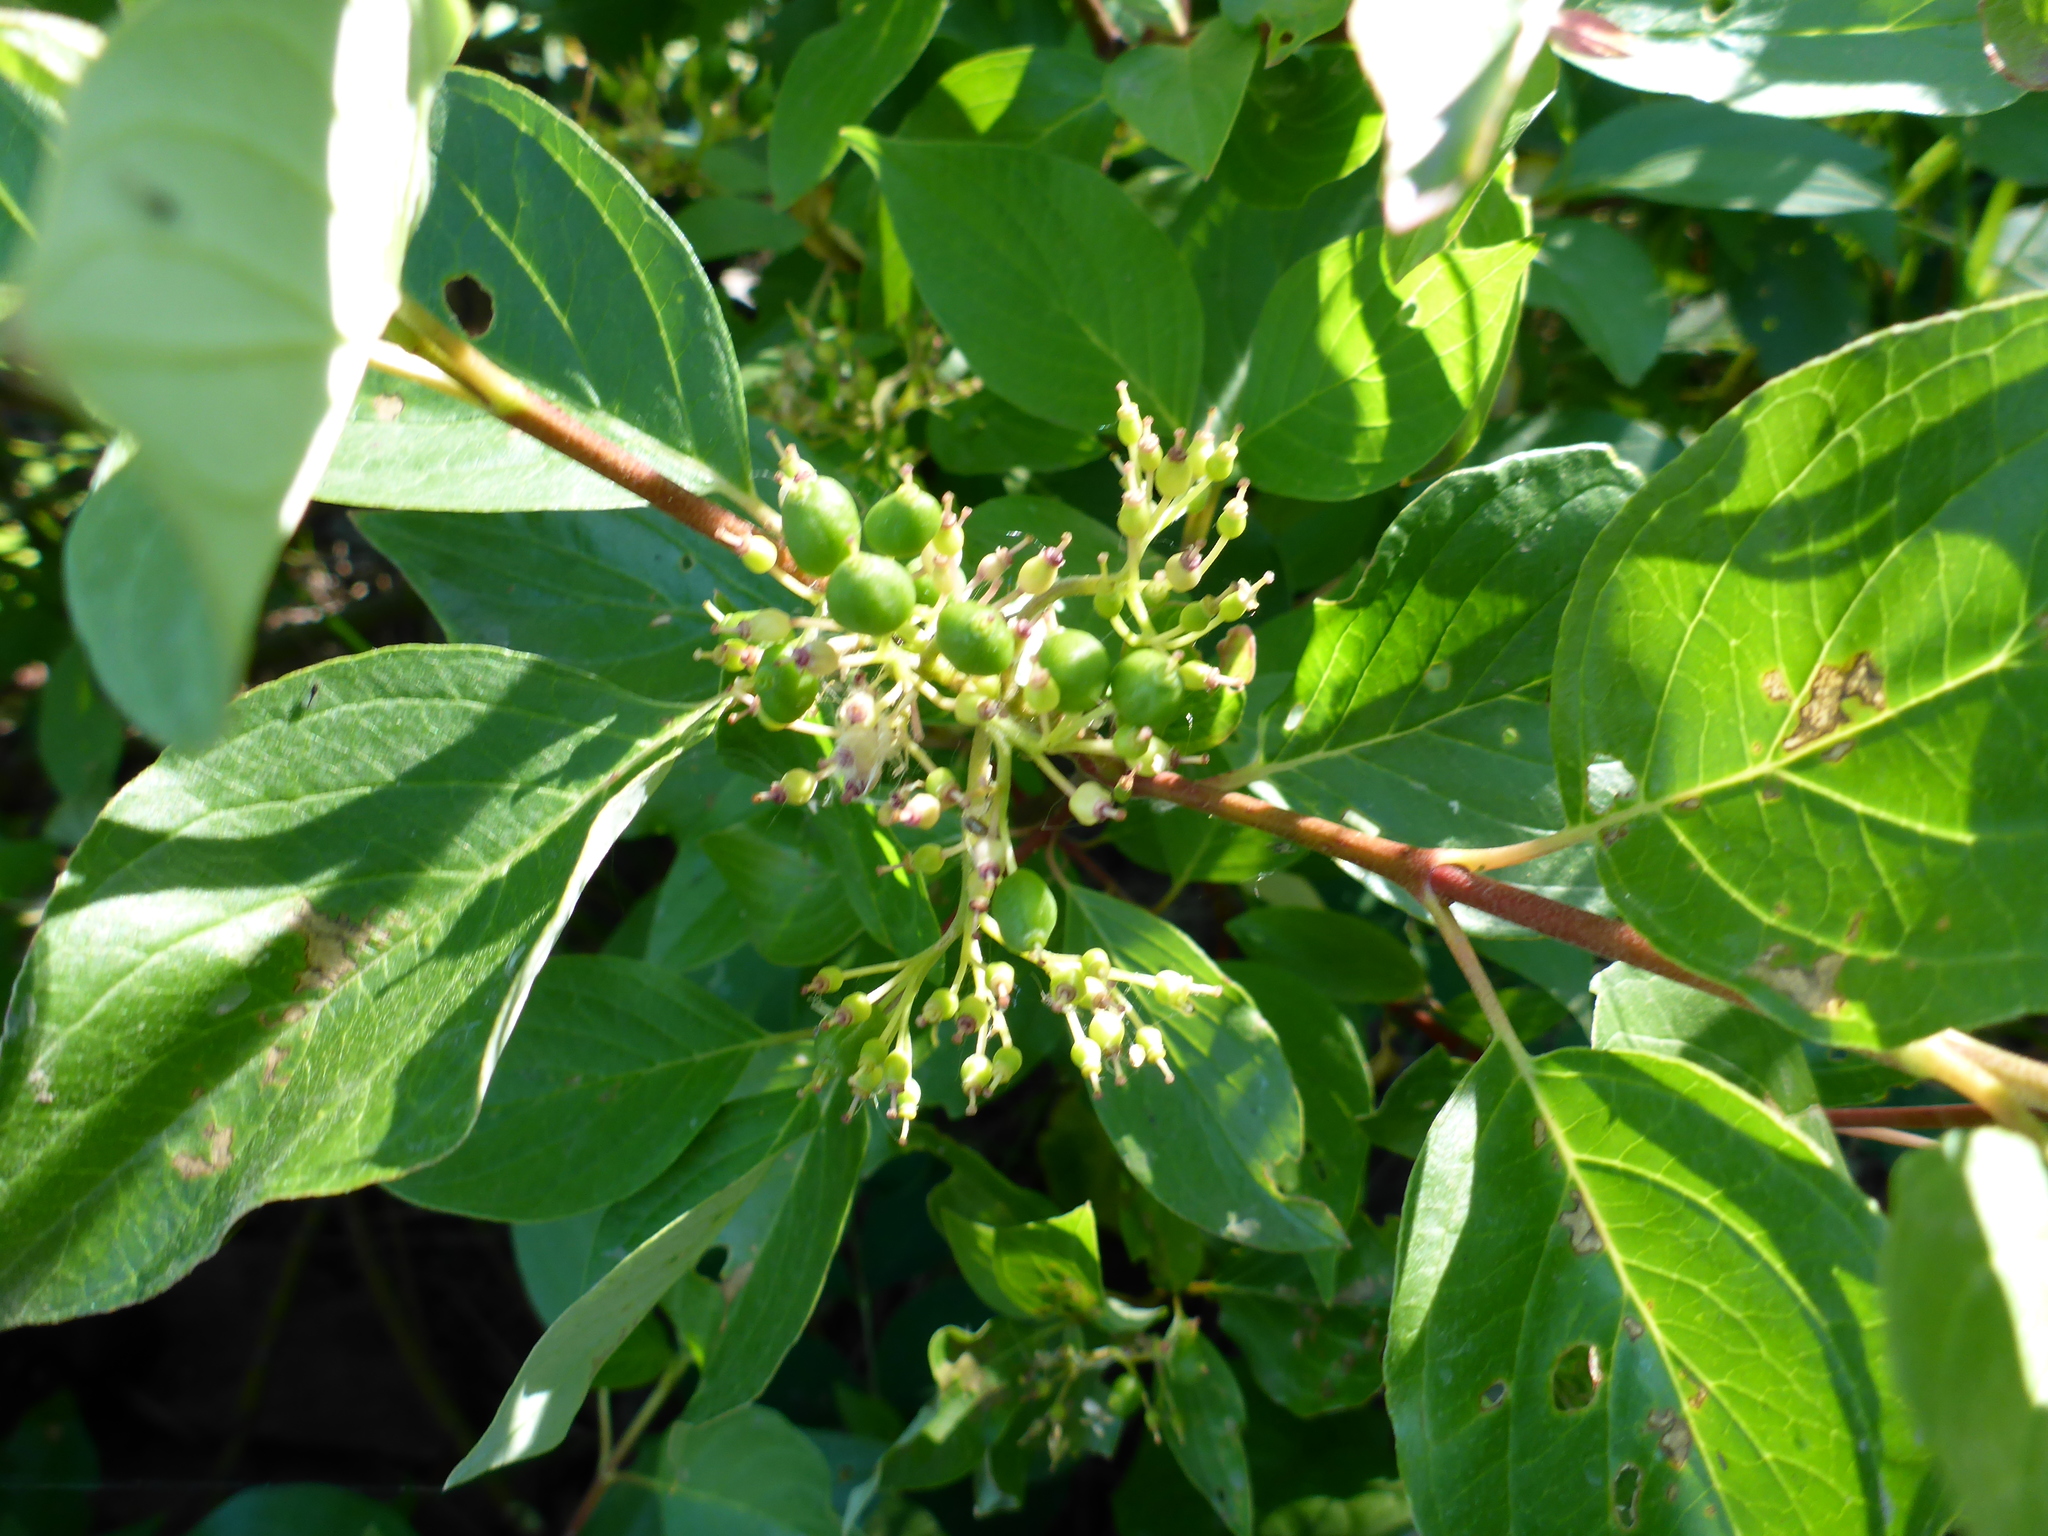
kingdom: Plantae
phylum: Tracheophyta
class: Magnoliopsida
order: Cornales
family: Cornaceae
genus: Cornus
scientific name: Cornus sericea
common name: Red-osier dogwood
